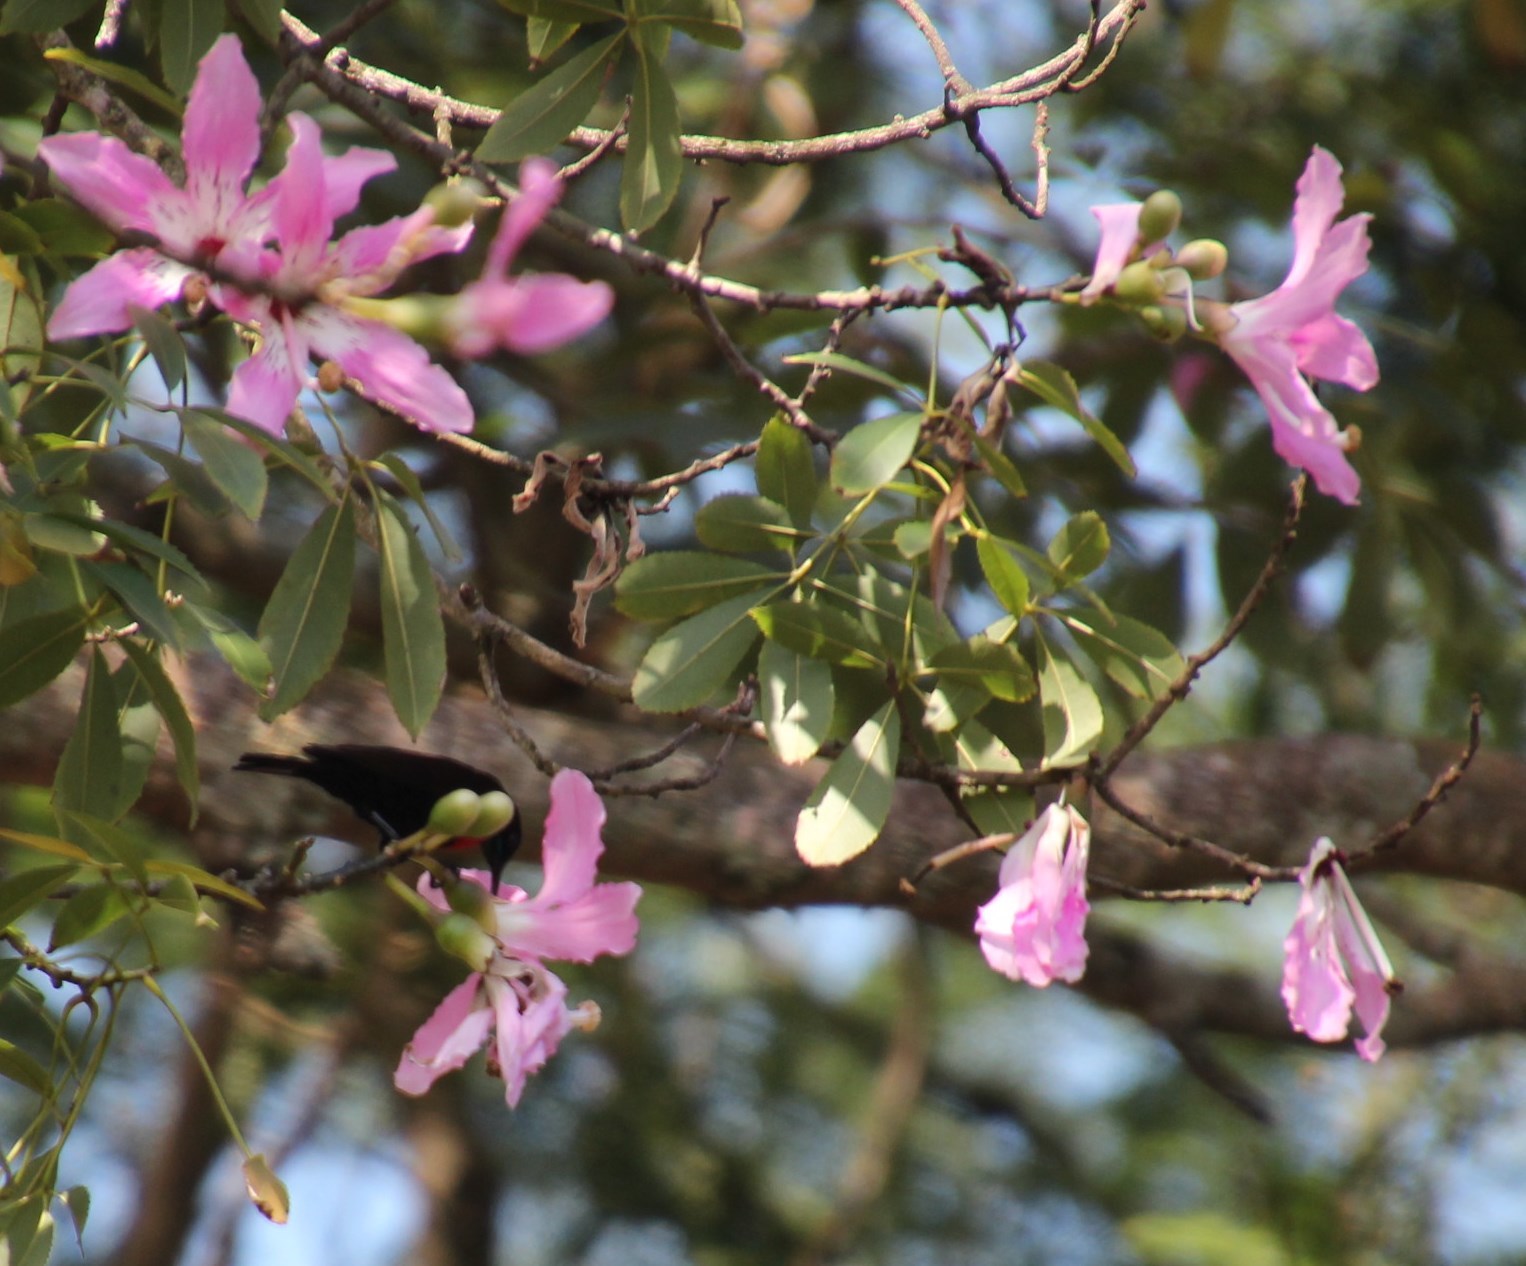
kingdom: Animalia
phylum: Chordata
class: Aves
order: Passeriformes
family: Nectariniidae
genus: Chalcomitra
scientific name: Chalcomitra senegalensis
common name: Scarlet-chested sunbird
